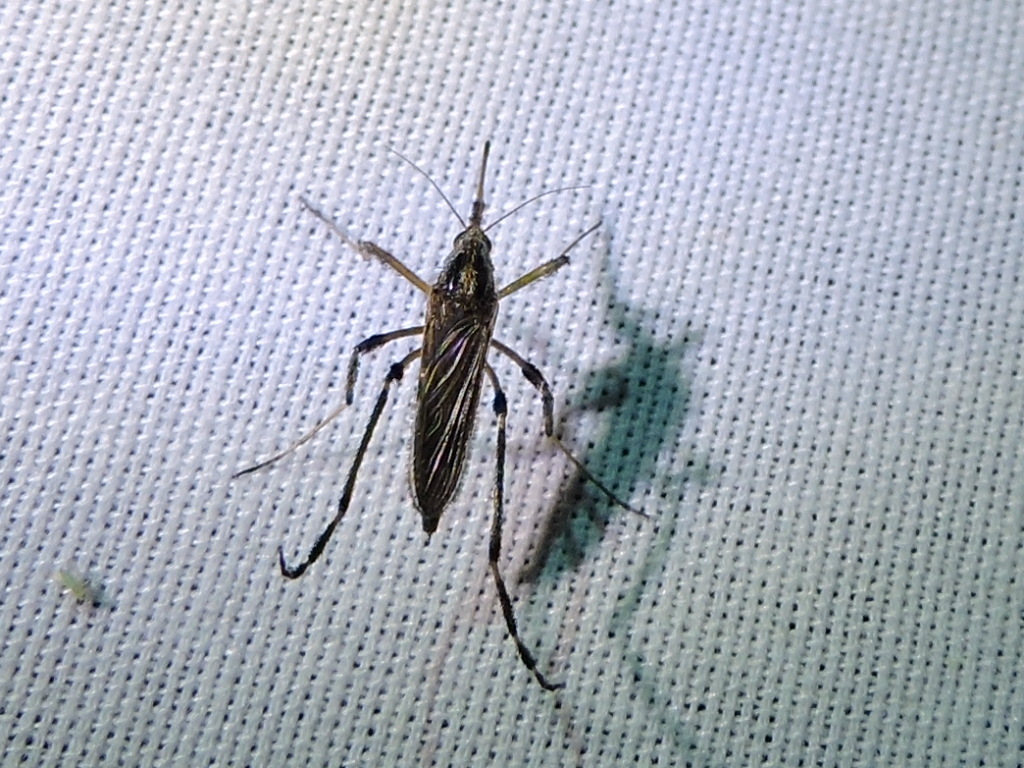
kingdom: Animalia
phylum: Arthropoda
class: Insecta
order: Diptera
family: Culicidae
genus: Psorophora
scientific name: Psorophora ciliata
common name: Gallinipper
